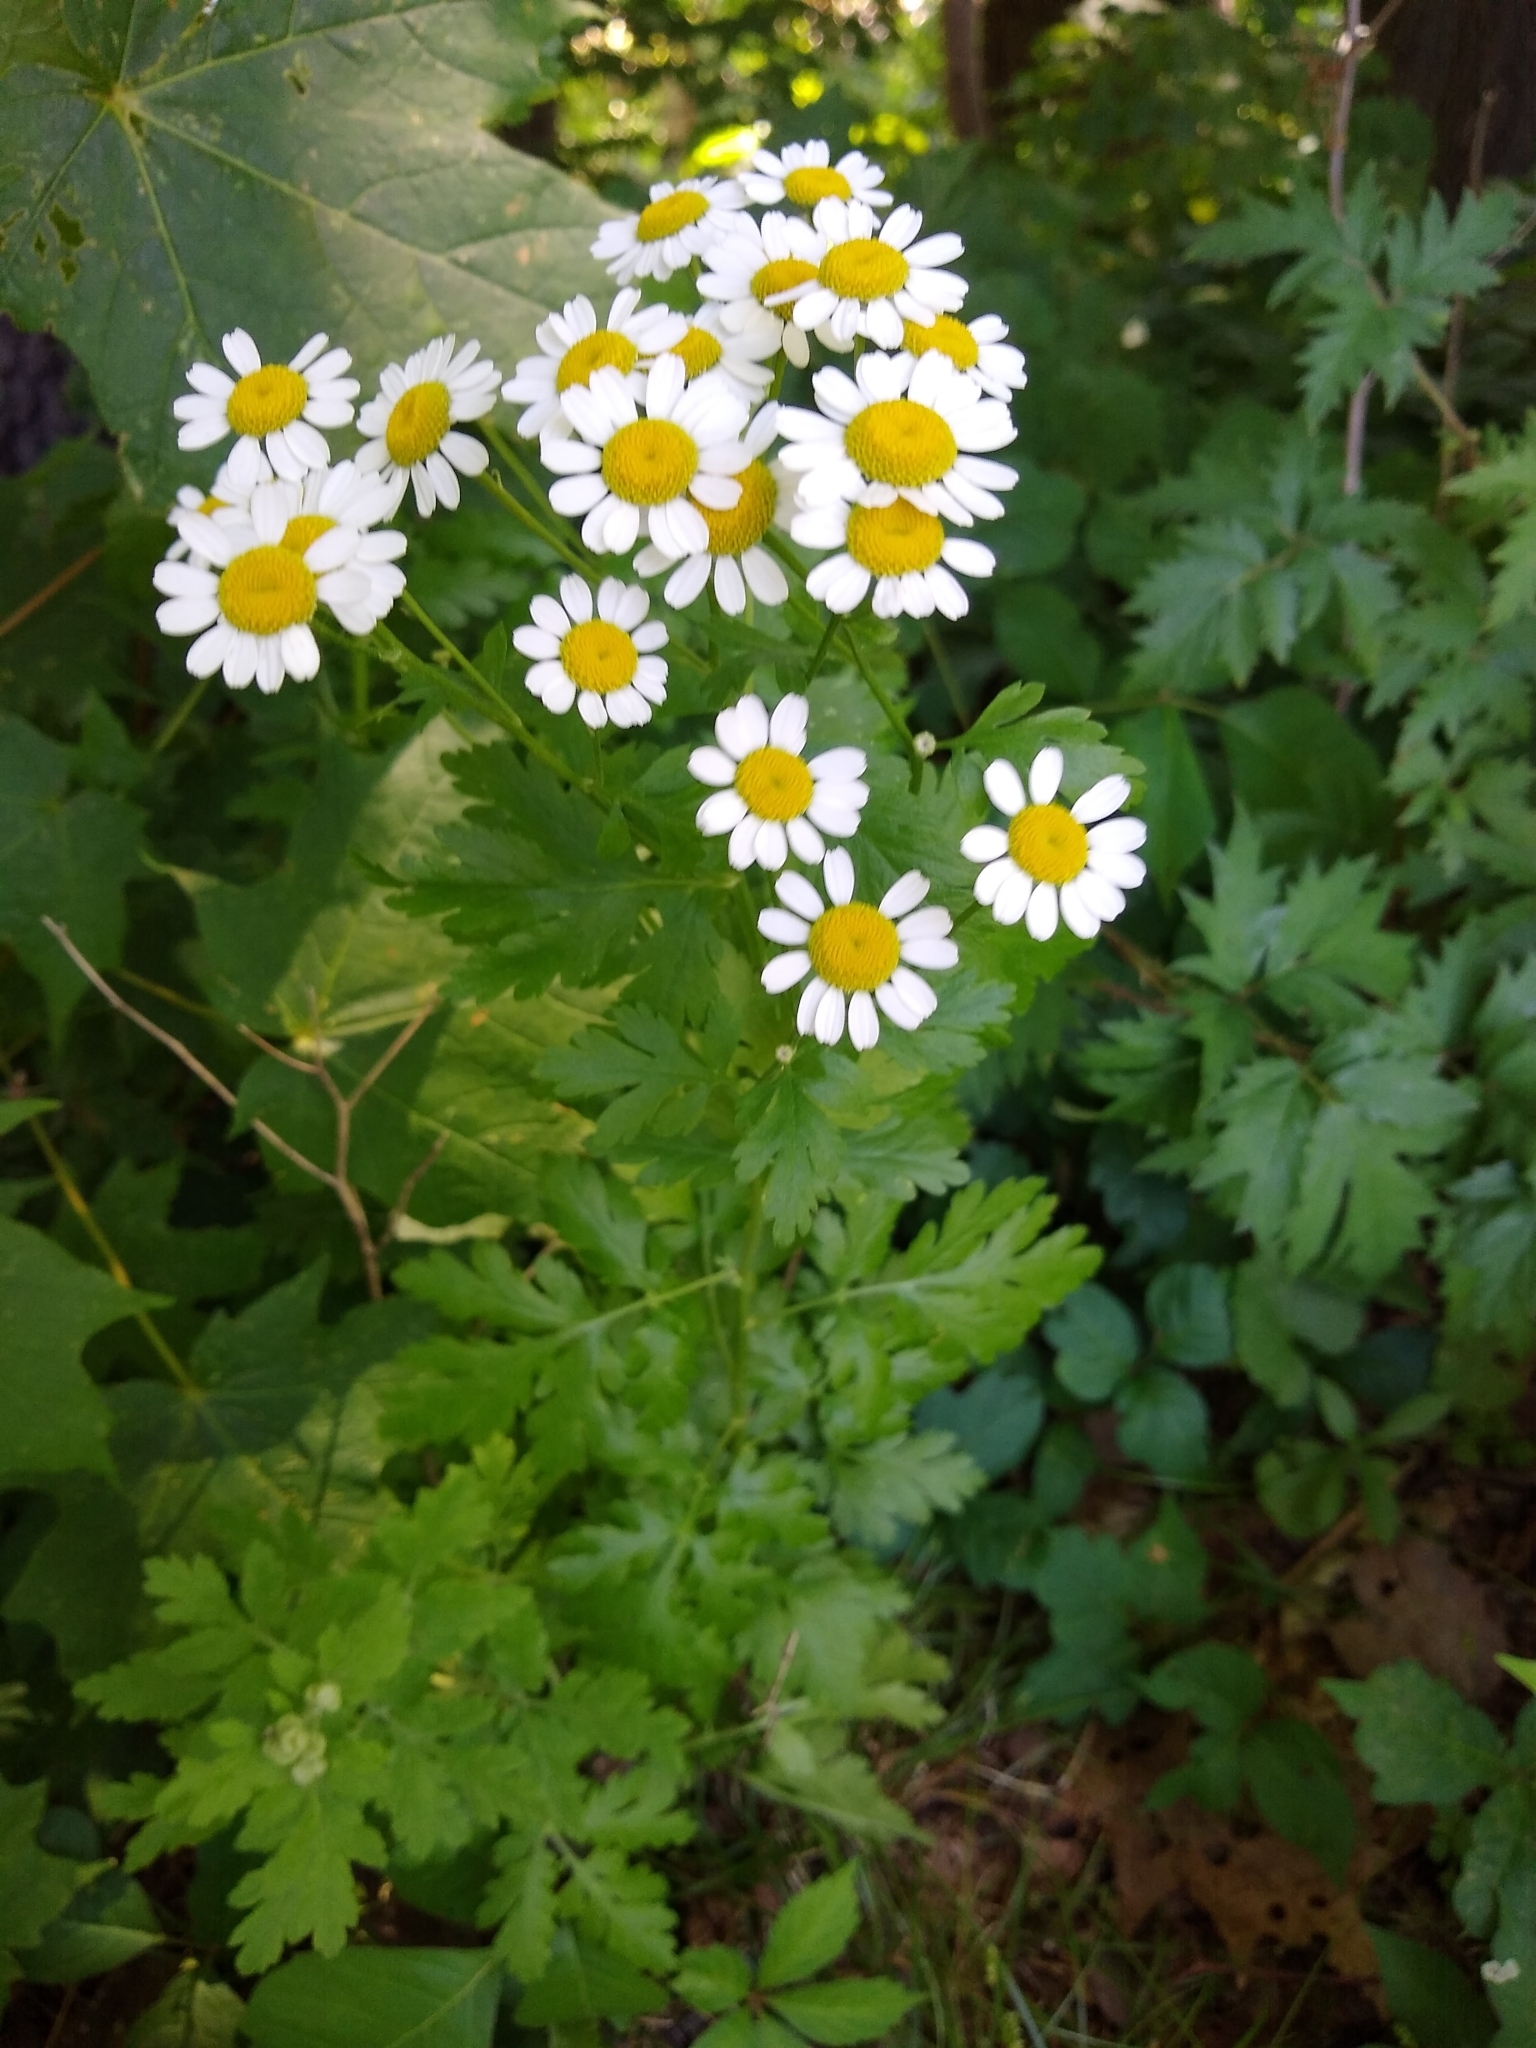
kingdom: Plantae
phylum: Tracheophyta
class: Magnoliopsida
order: Asterales
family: Asteraceae
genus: Tanacetum
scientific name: Tanacetum parthenium
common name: Feverfew
